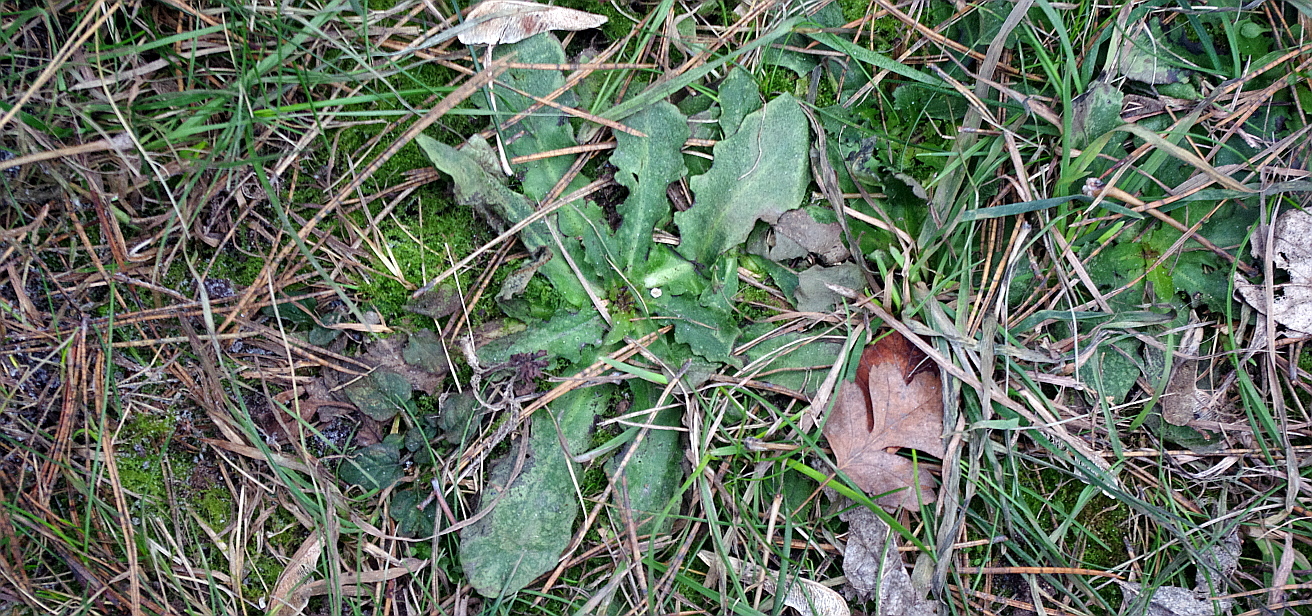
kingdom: Plantae
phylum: Tracheophyta
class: Magnoliopsida
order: Asterales
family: Asteraceae
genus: Hypochaeris
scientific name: Hypochaeris radicata
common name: Flatweed
